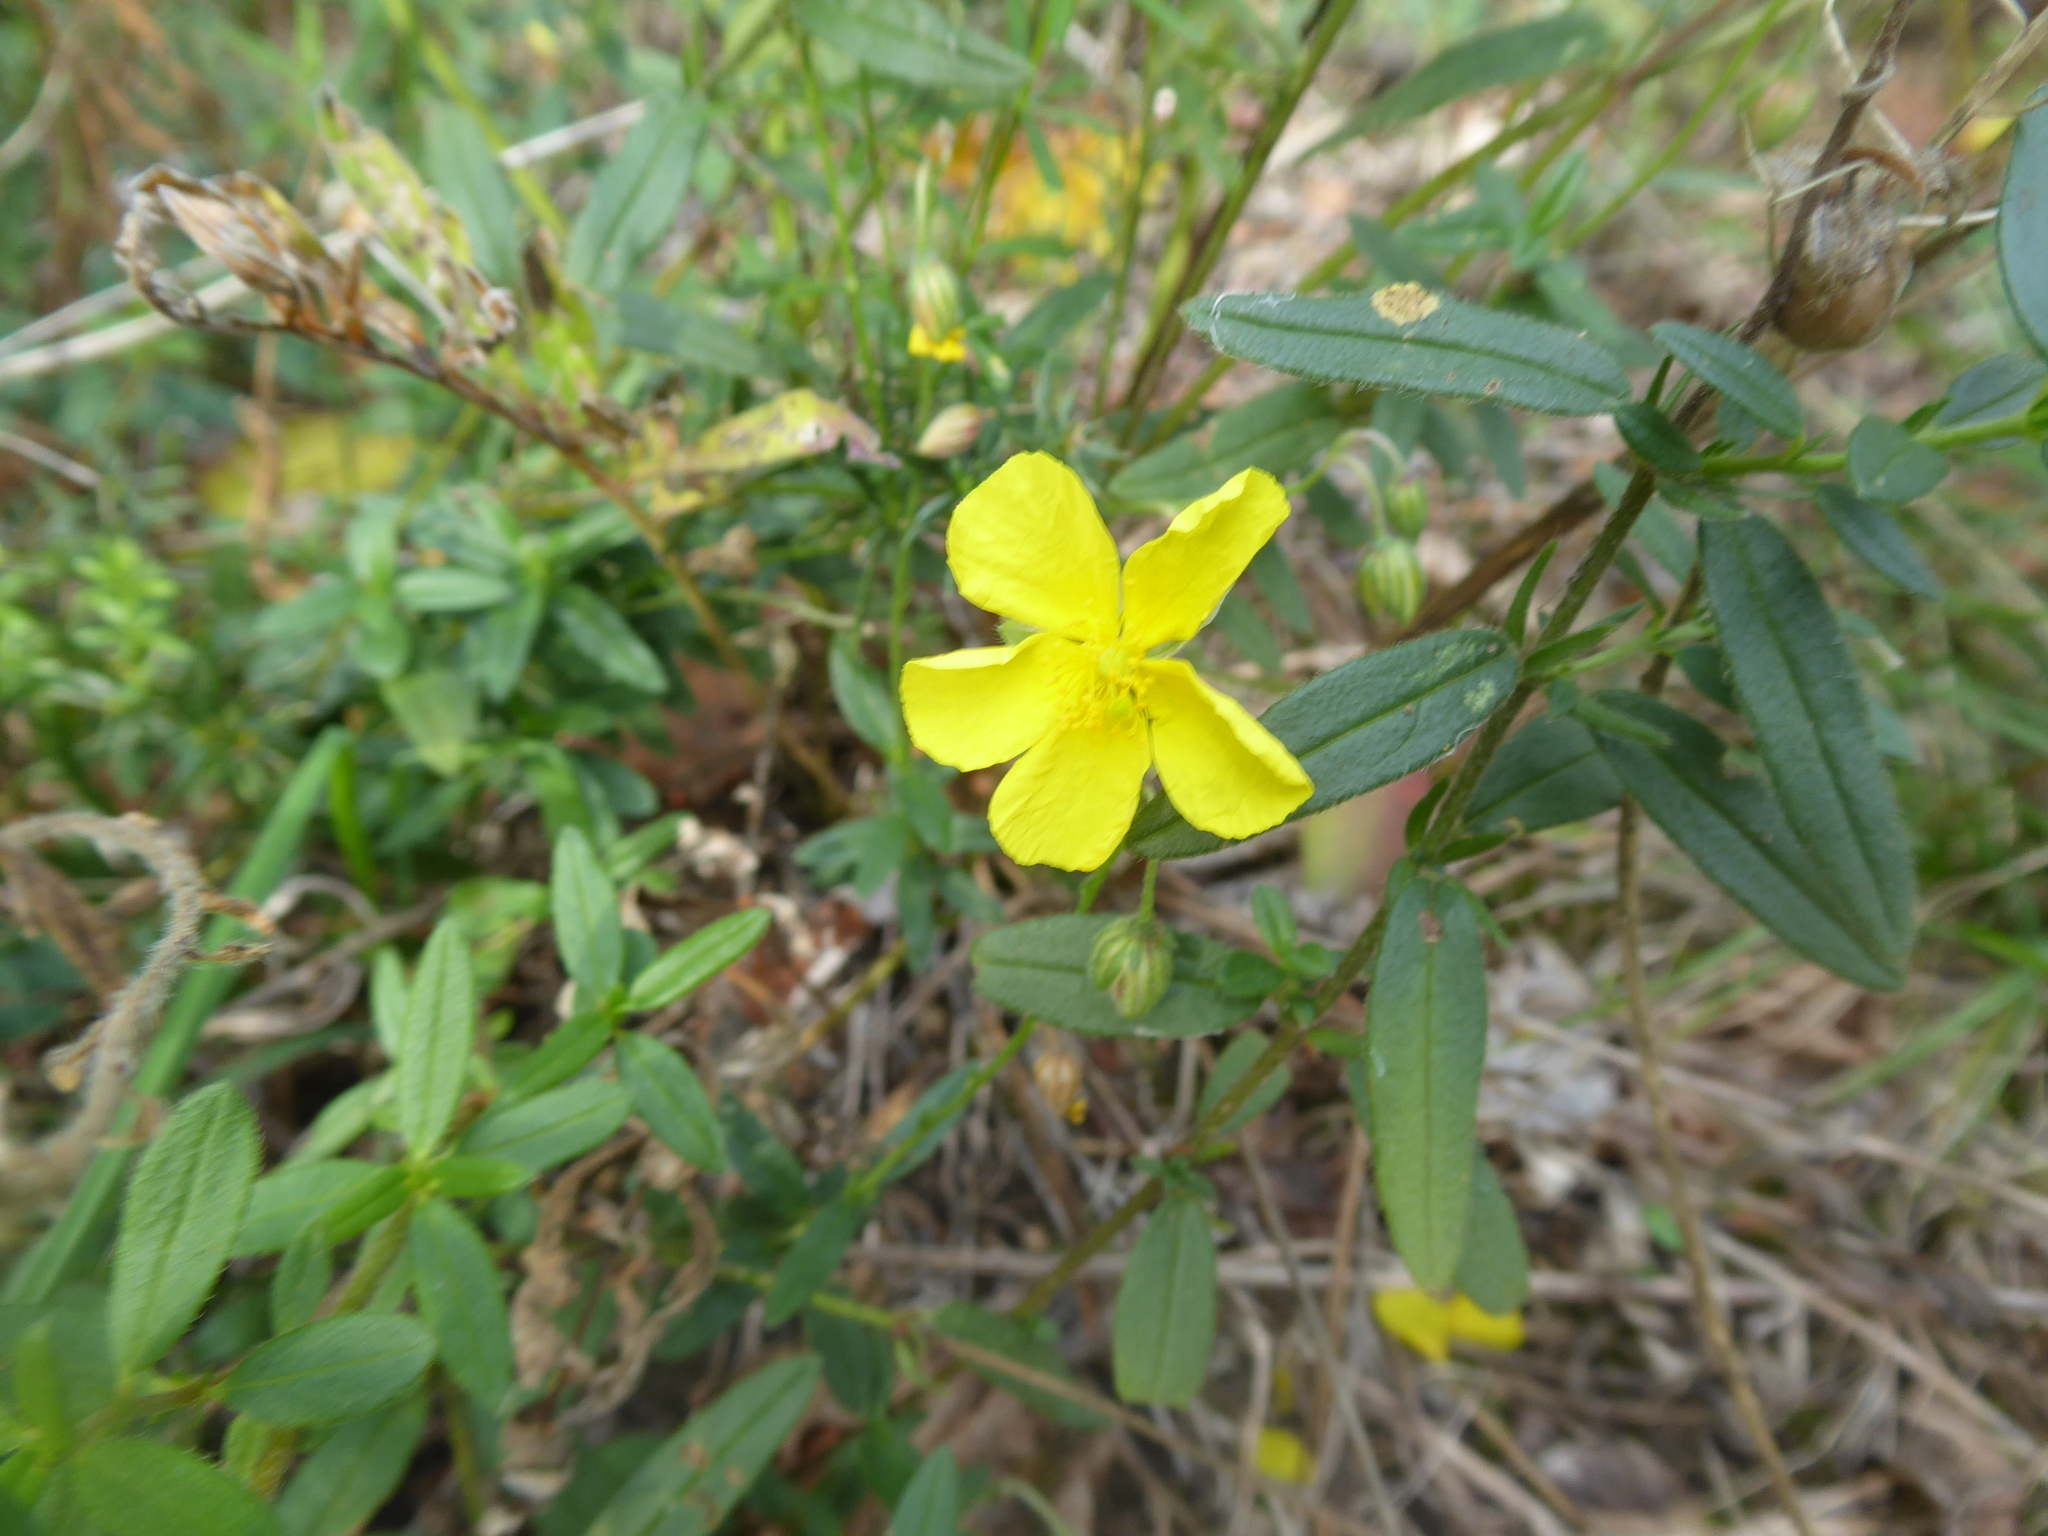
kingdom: Plantae
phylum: Tracheophyta
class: Magnoliopsida
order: Malvales
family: Cistaceae
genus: Helianthemum
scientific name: Helianthemum nummularium
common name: Common rock-rose
